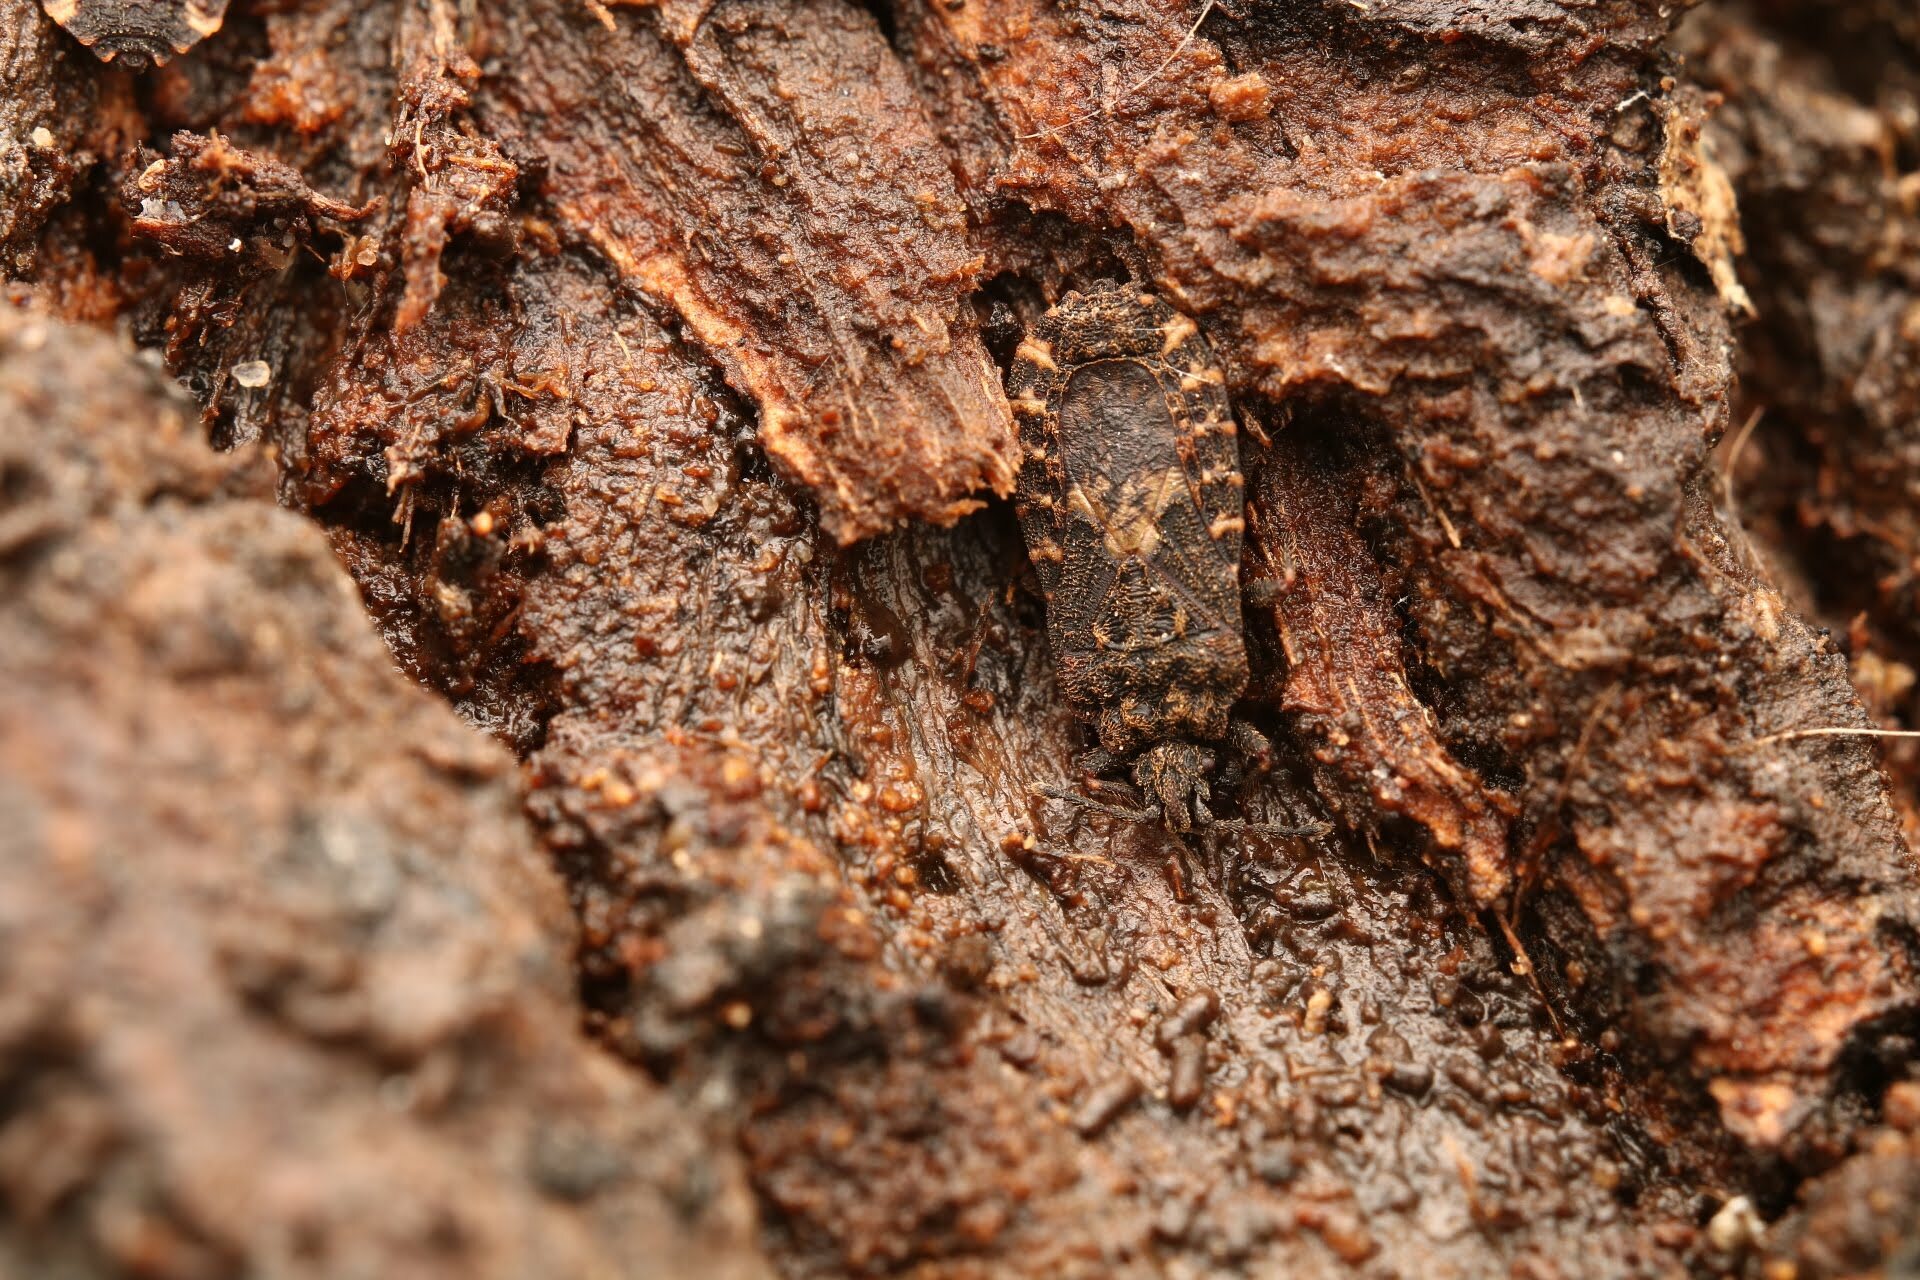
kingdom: Animalia
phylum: Arthropoda
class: Insecta
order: Hemiptera
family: Aradidae
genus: Mezira
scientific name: Mezira
